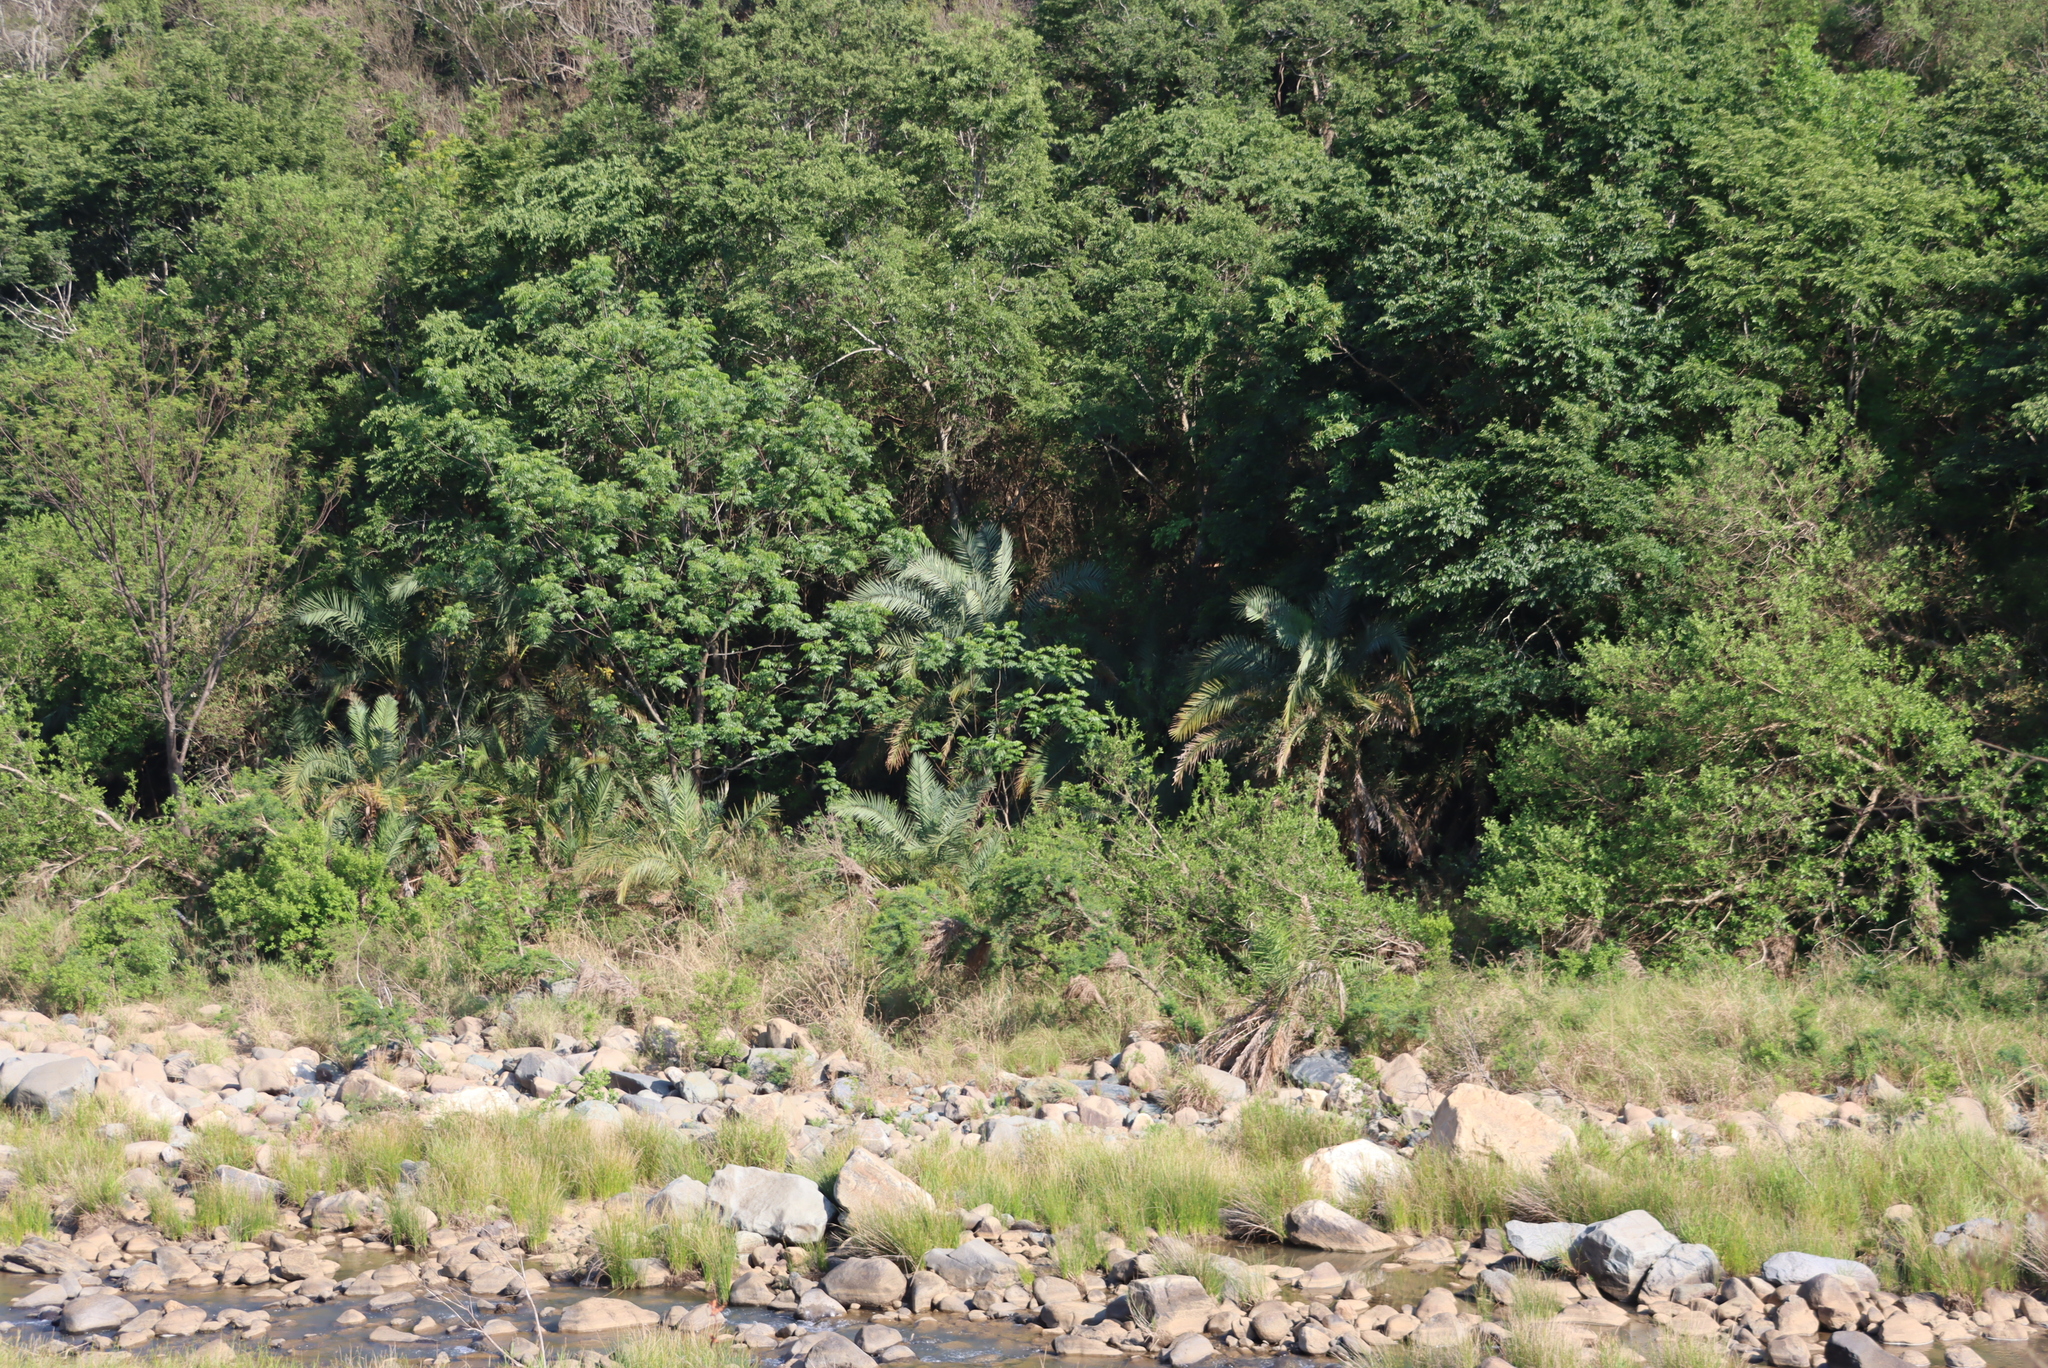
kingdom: Plantae
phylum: Tracheophyta
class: Liliopsida
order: Arecales
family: Arecaceae
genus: Phoenix
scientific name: Phoenix reclinata
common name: Senegal date palm
